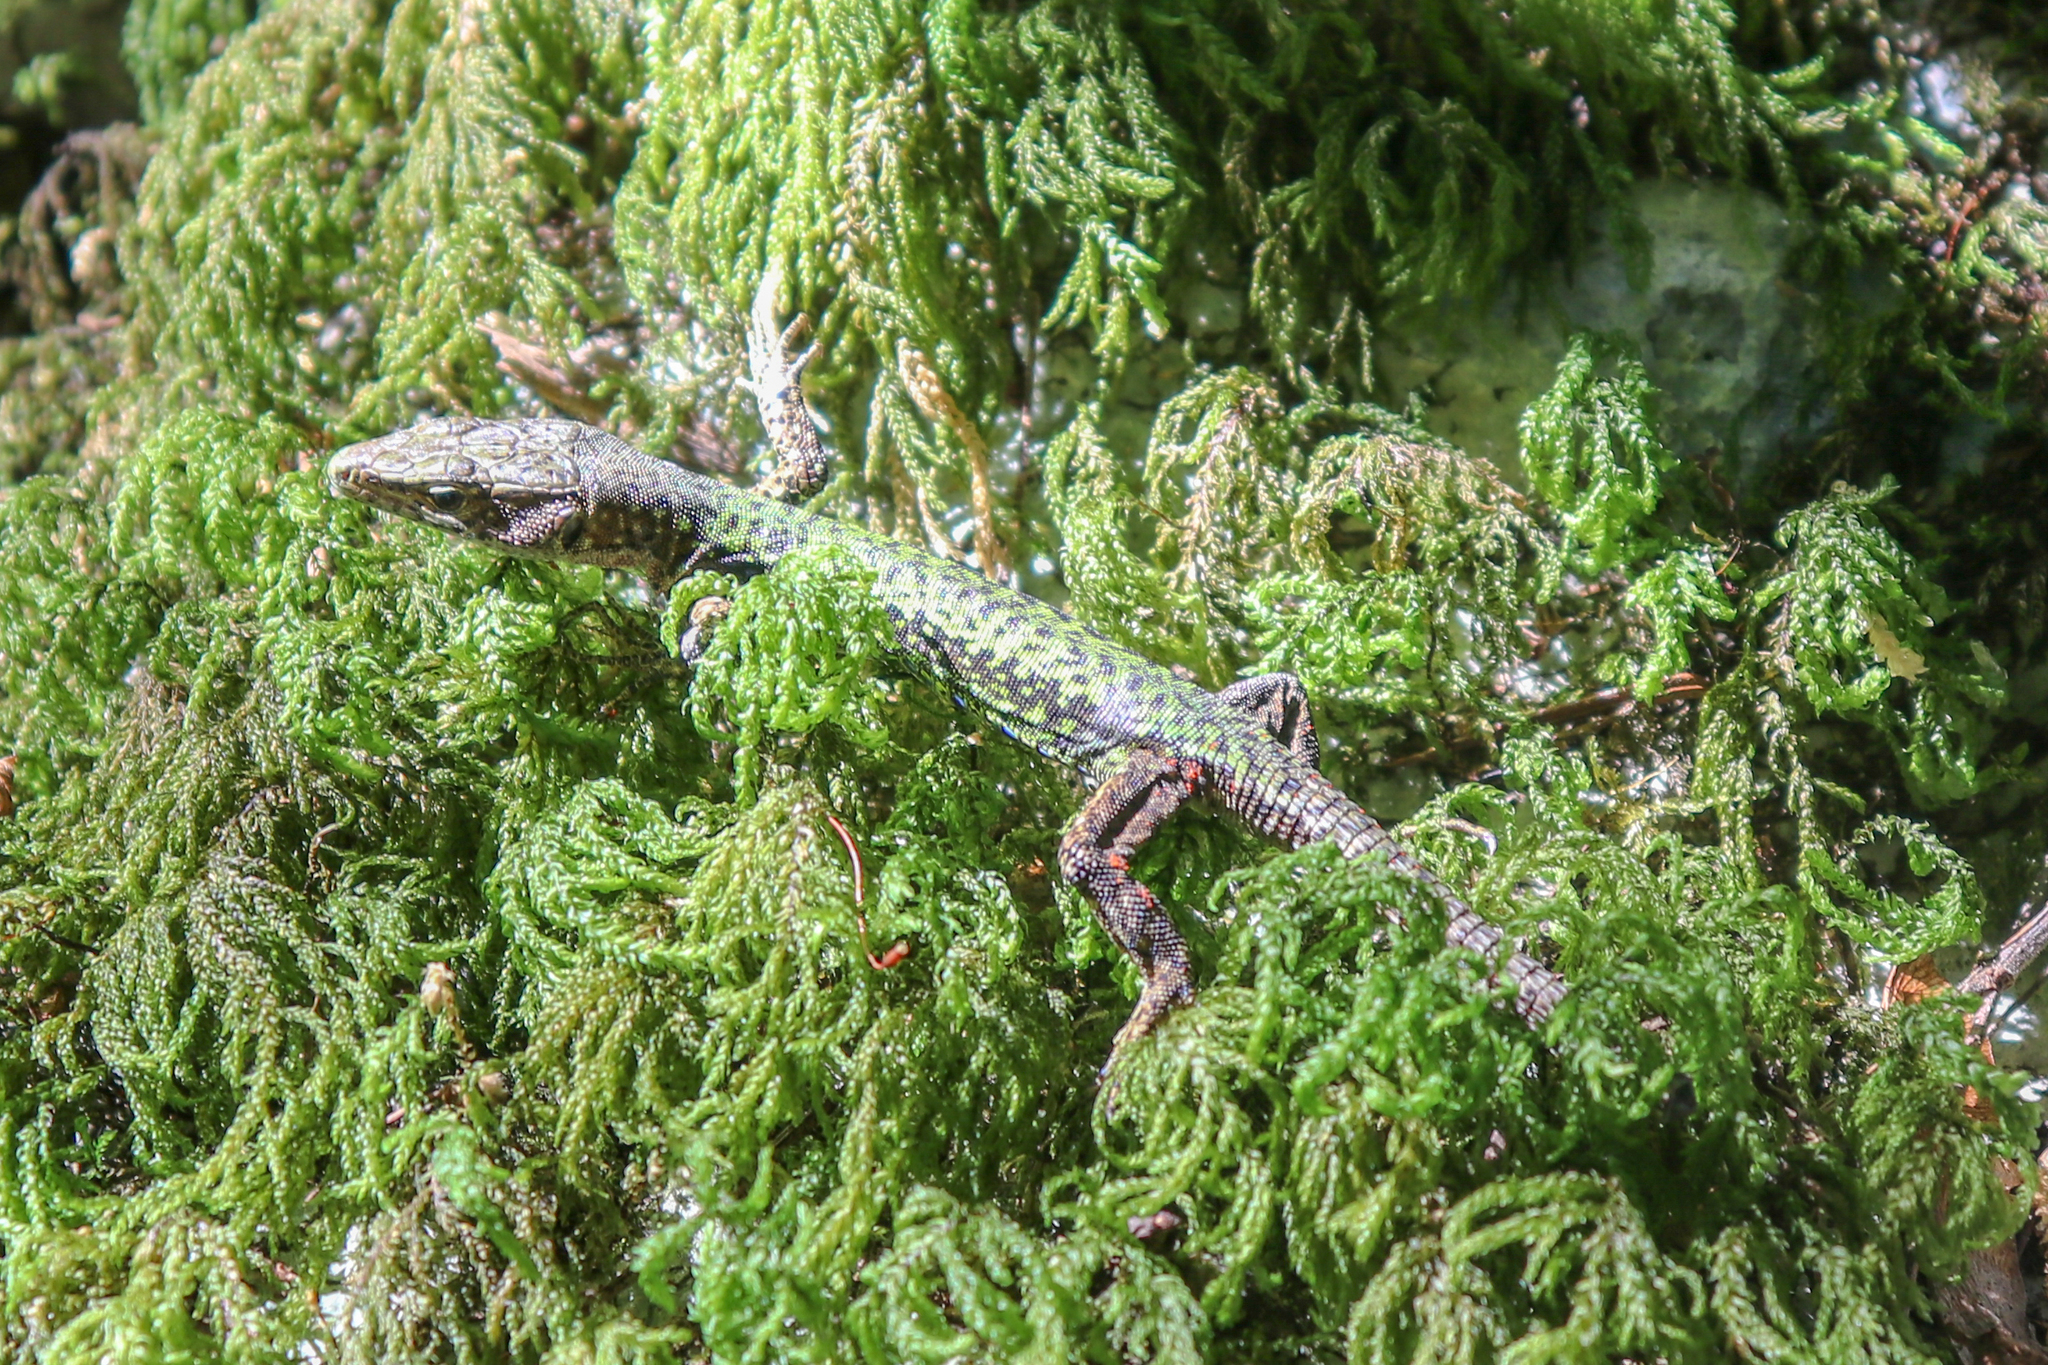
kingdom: Animalia
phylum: Chordata
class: Squamata
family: Lacertidae
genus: Darevskia
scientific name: Darevskia brauneri
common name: Brauner's rock lizard
